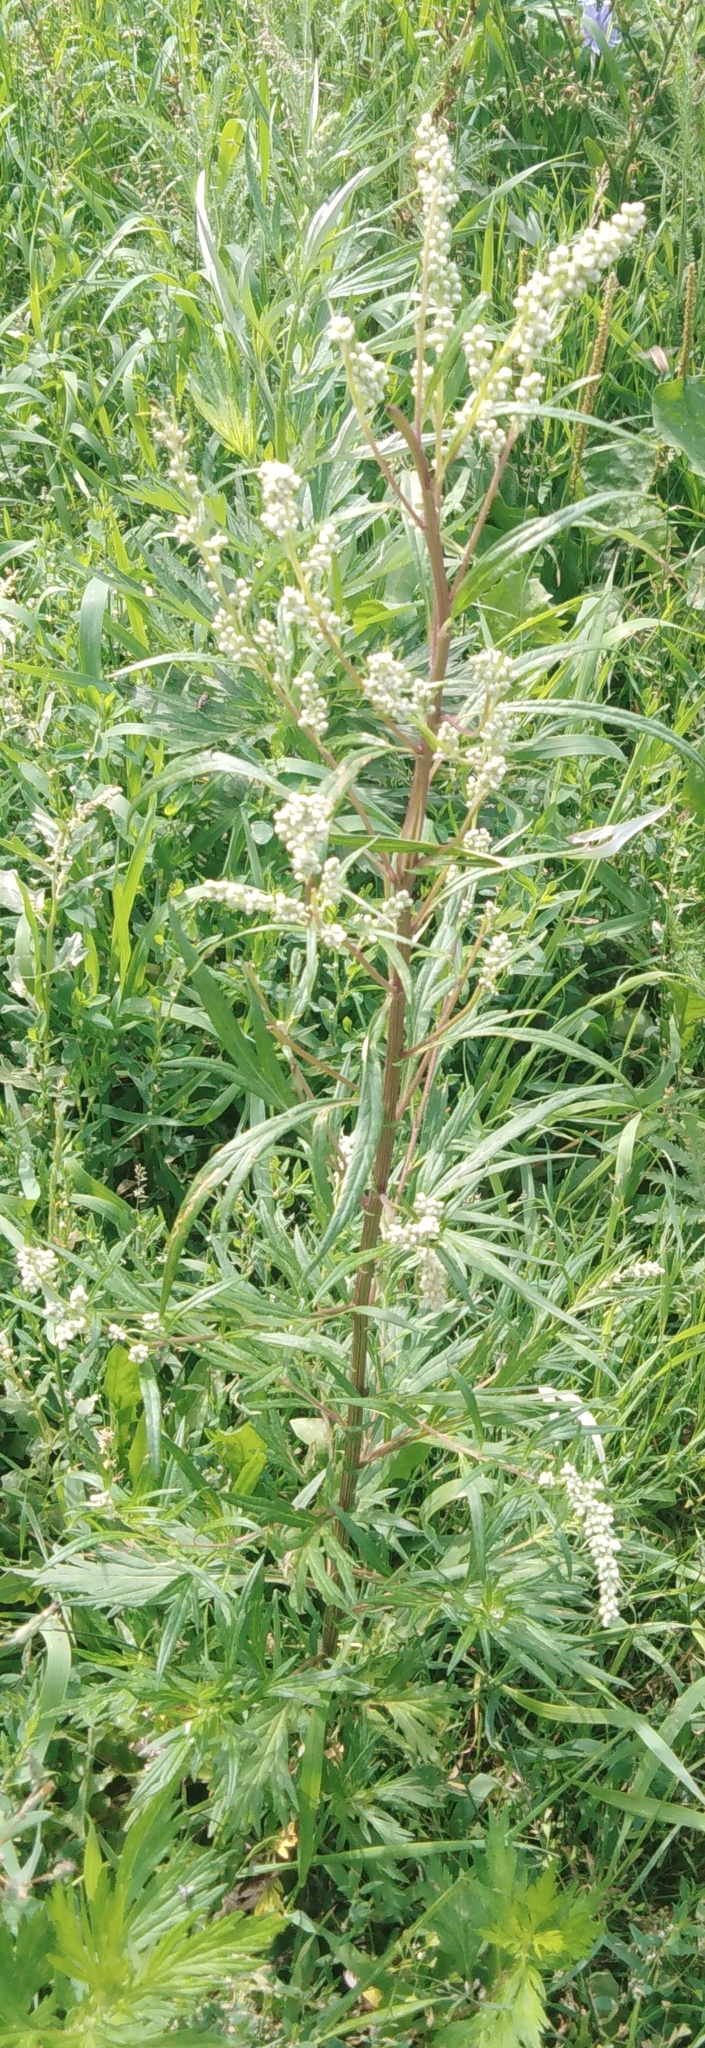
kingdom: Plantae
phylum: Tracheophyta
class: Magnoliopsida
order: Asterales
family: Asteraceae
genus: Artemisia
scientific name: Artemisia vulgaris
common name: Mugwort
